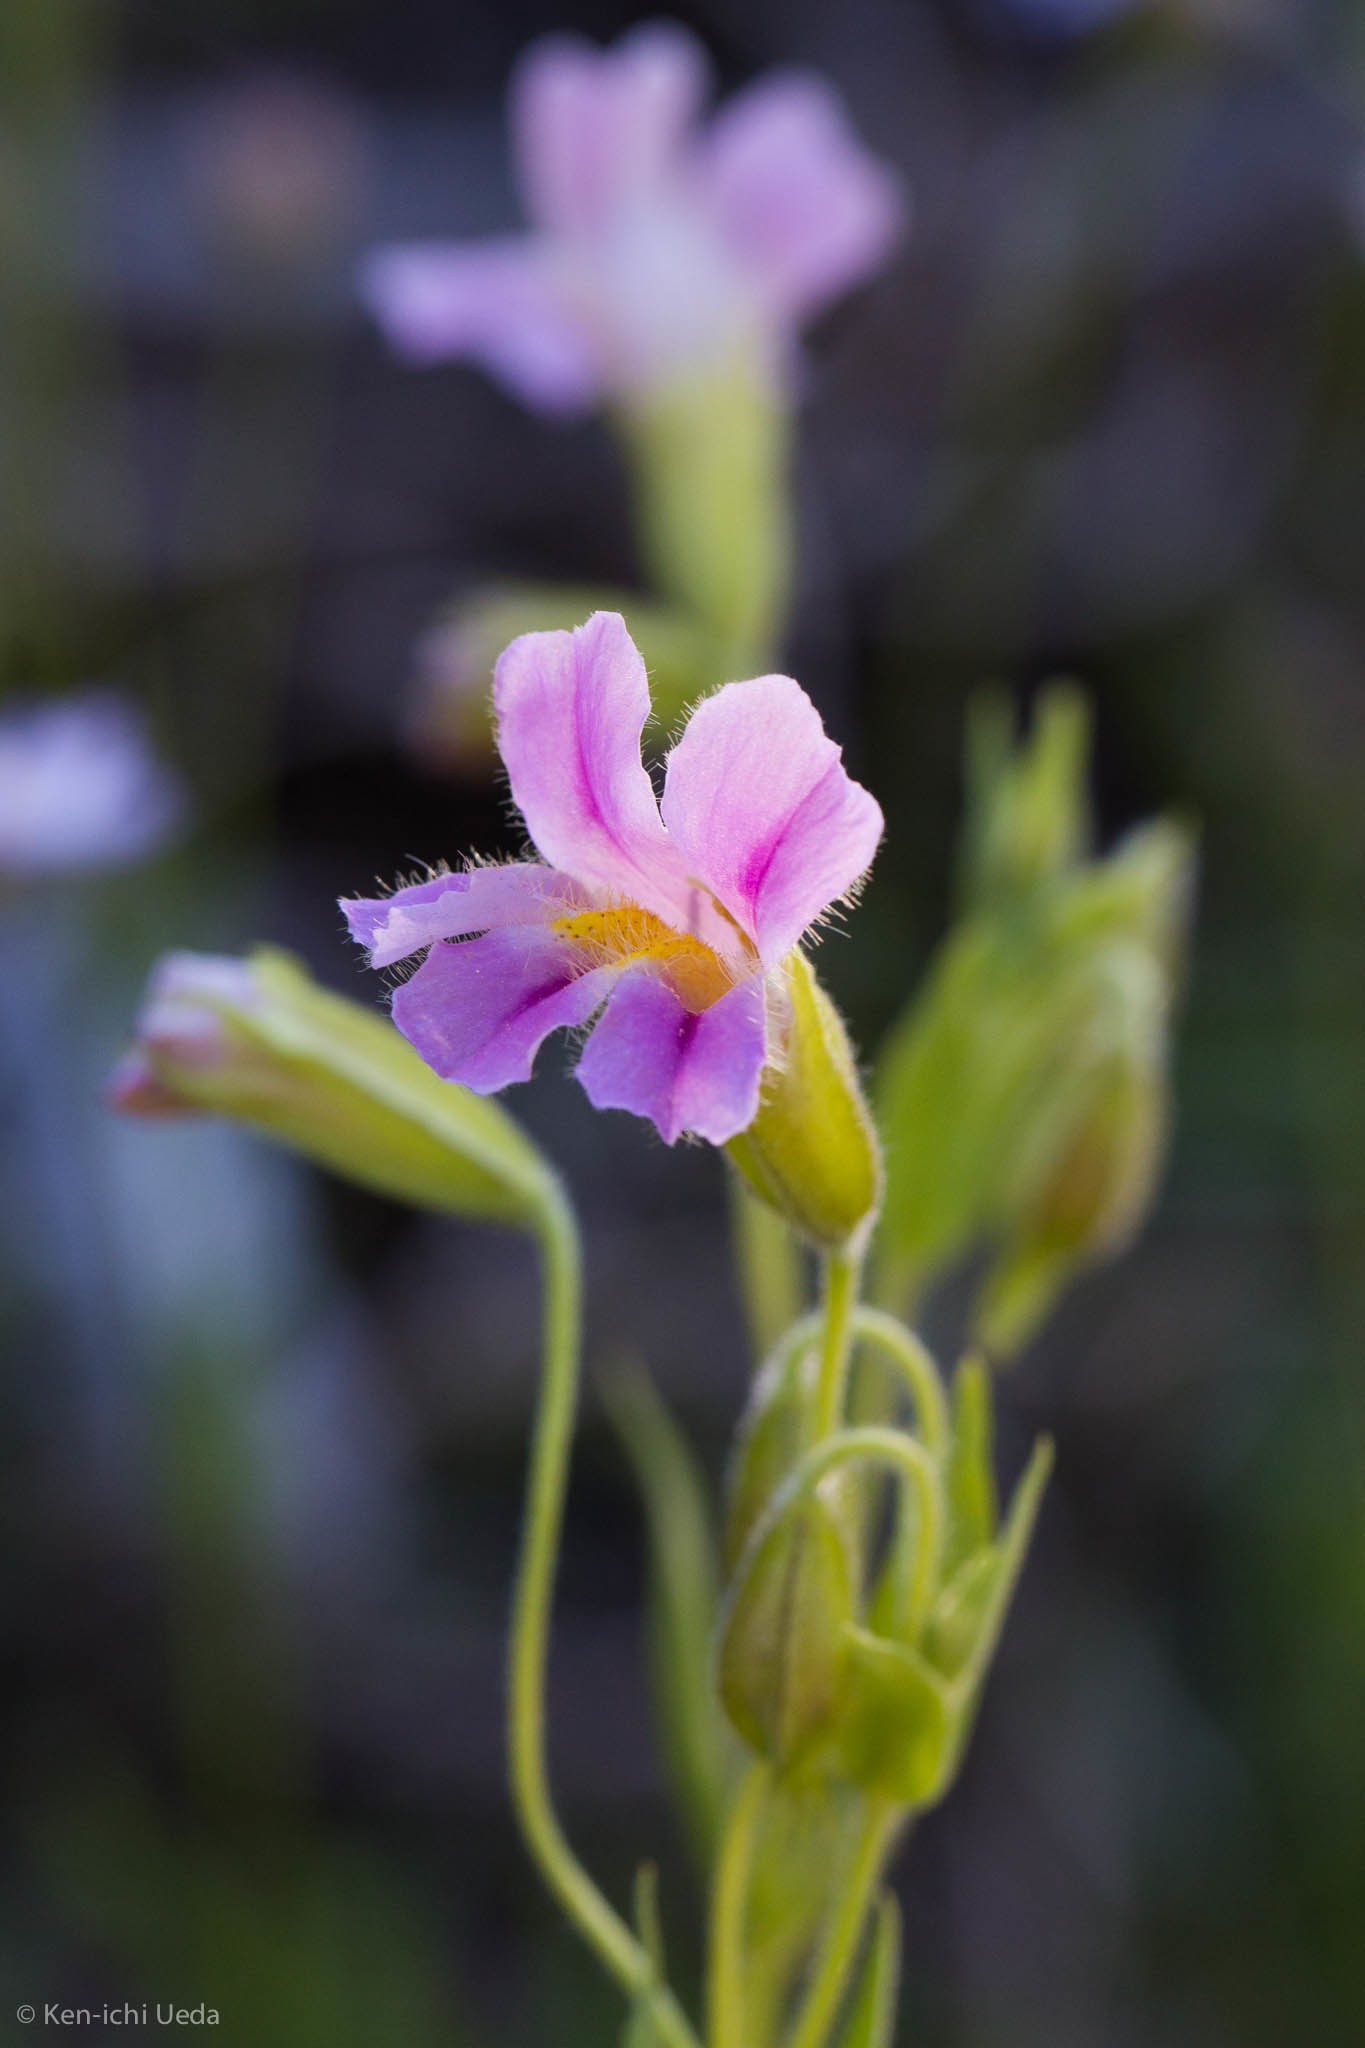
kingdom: Plantae
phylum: Tracheophyta
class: Magnoliopsida
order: Lamiales
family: Phrymaceae
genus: Erythranthe
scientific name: Erythranthe erubescens
